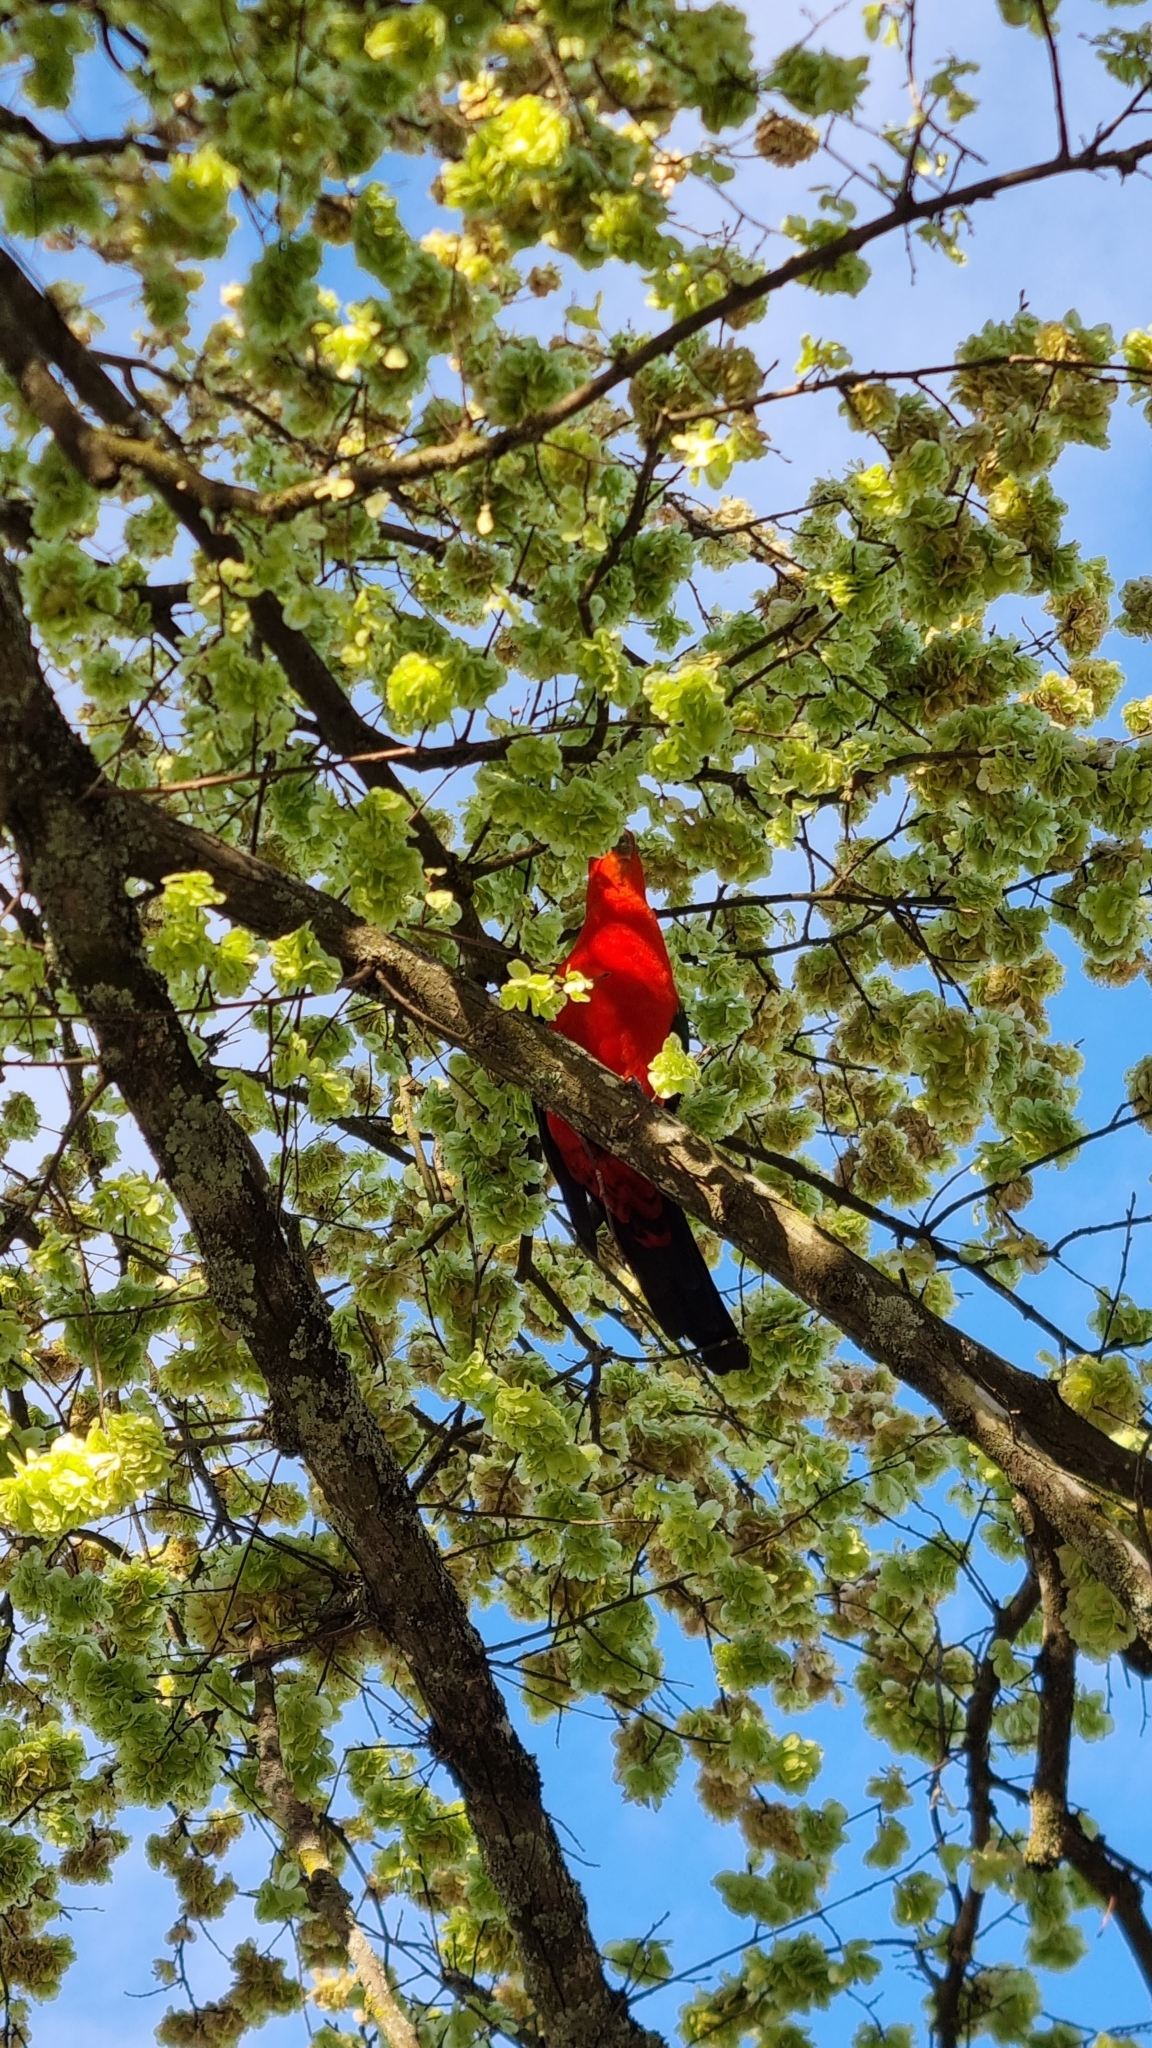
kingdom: Animalia
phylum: Chordata
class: Aves
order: Psittaciformes
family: Psittacidae
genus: Alisterus
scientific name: Alisterus scapularis
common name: Australian king parrot
